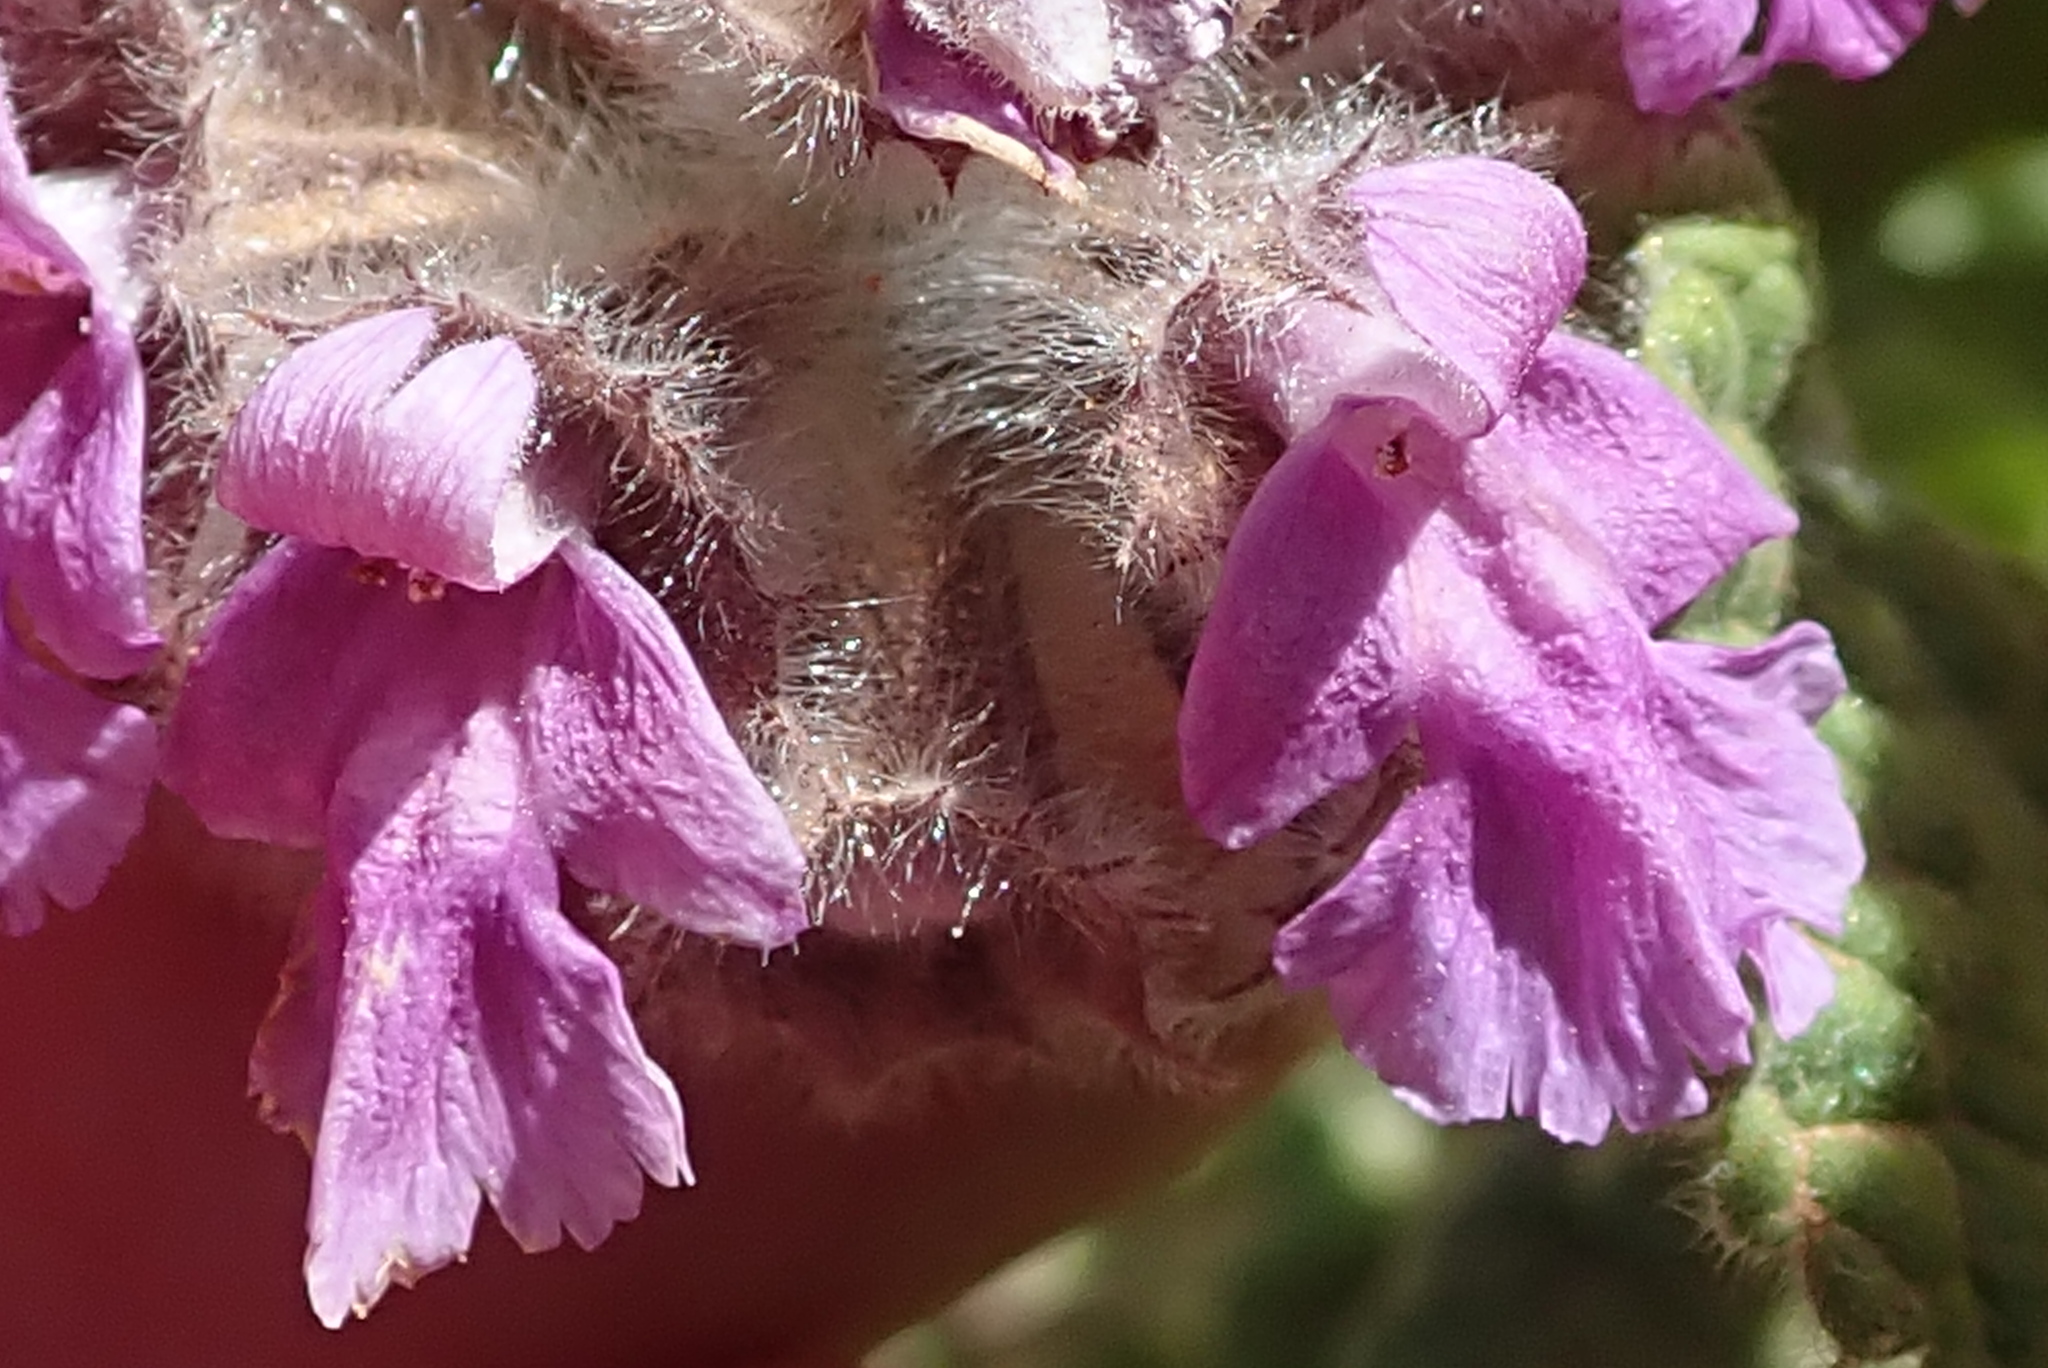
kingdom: Plantae
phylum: Tracheophyta
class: Magnoliopsida
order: Lamiales
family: Lamiaceae
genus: Pseudodictamnus
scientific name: Pseudodictamnus africanus
